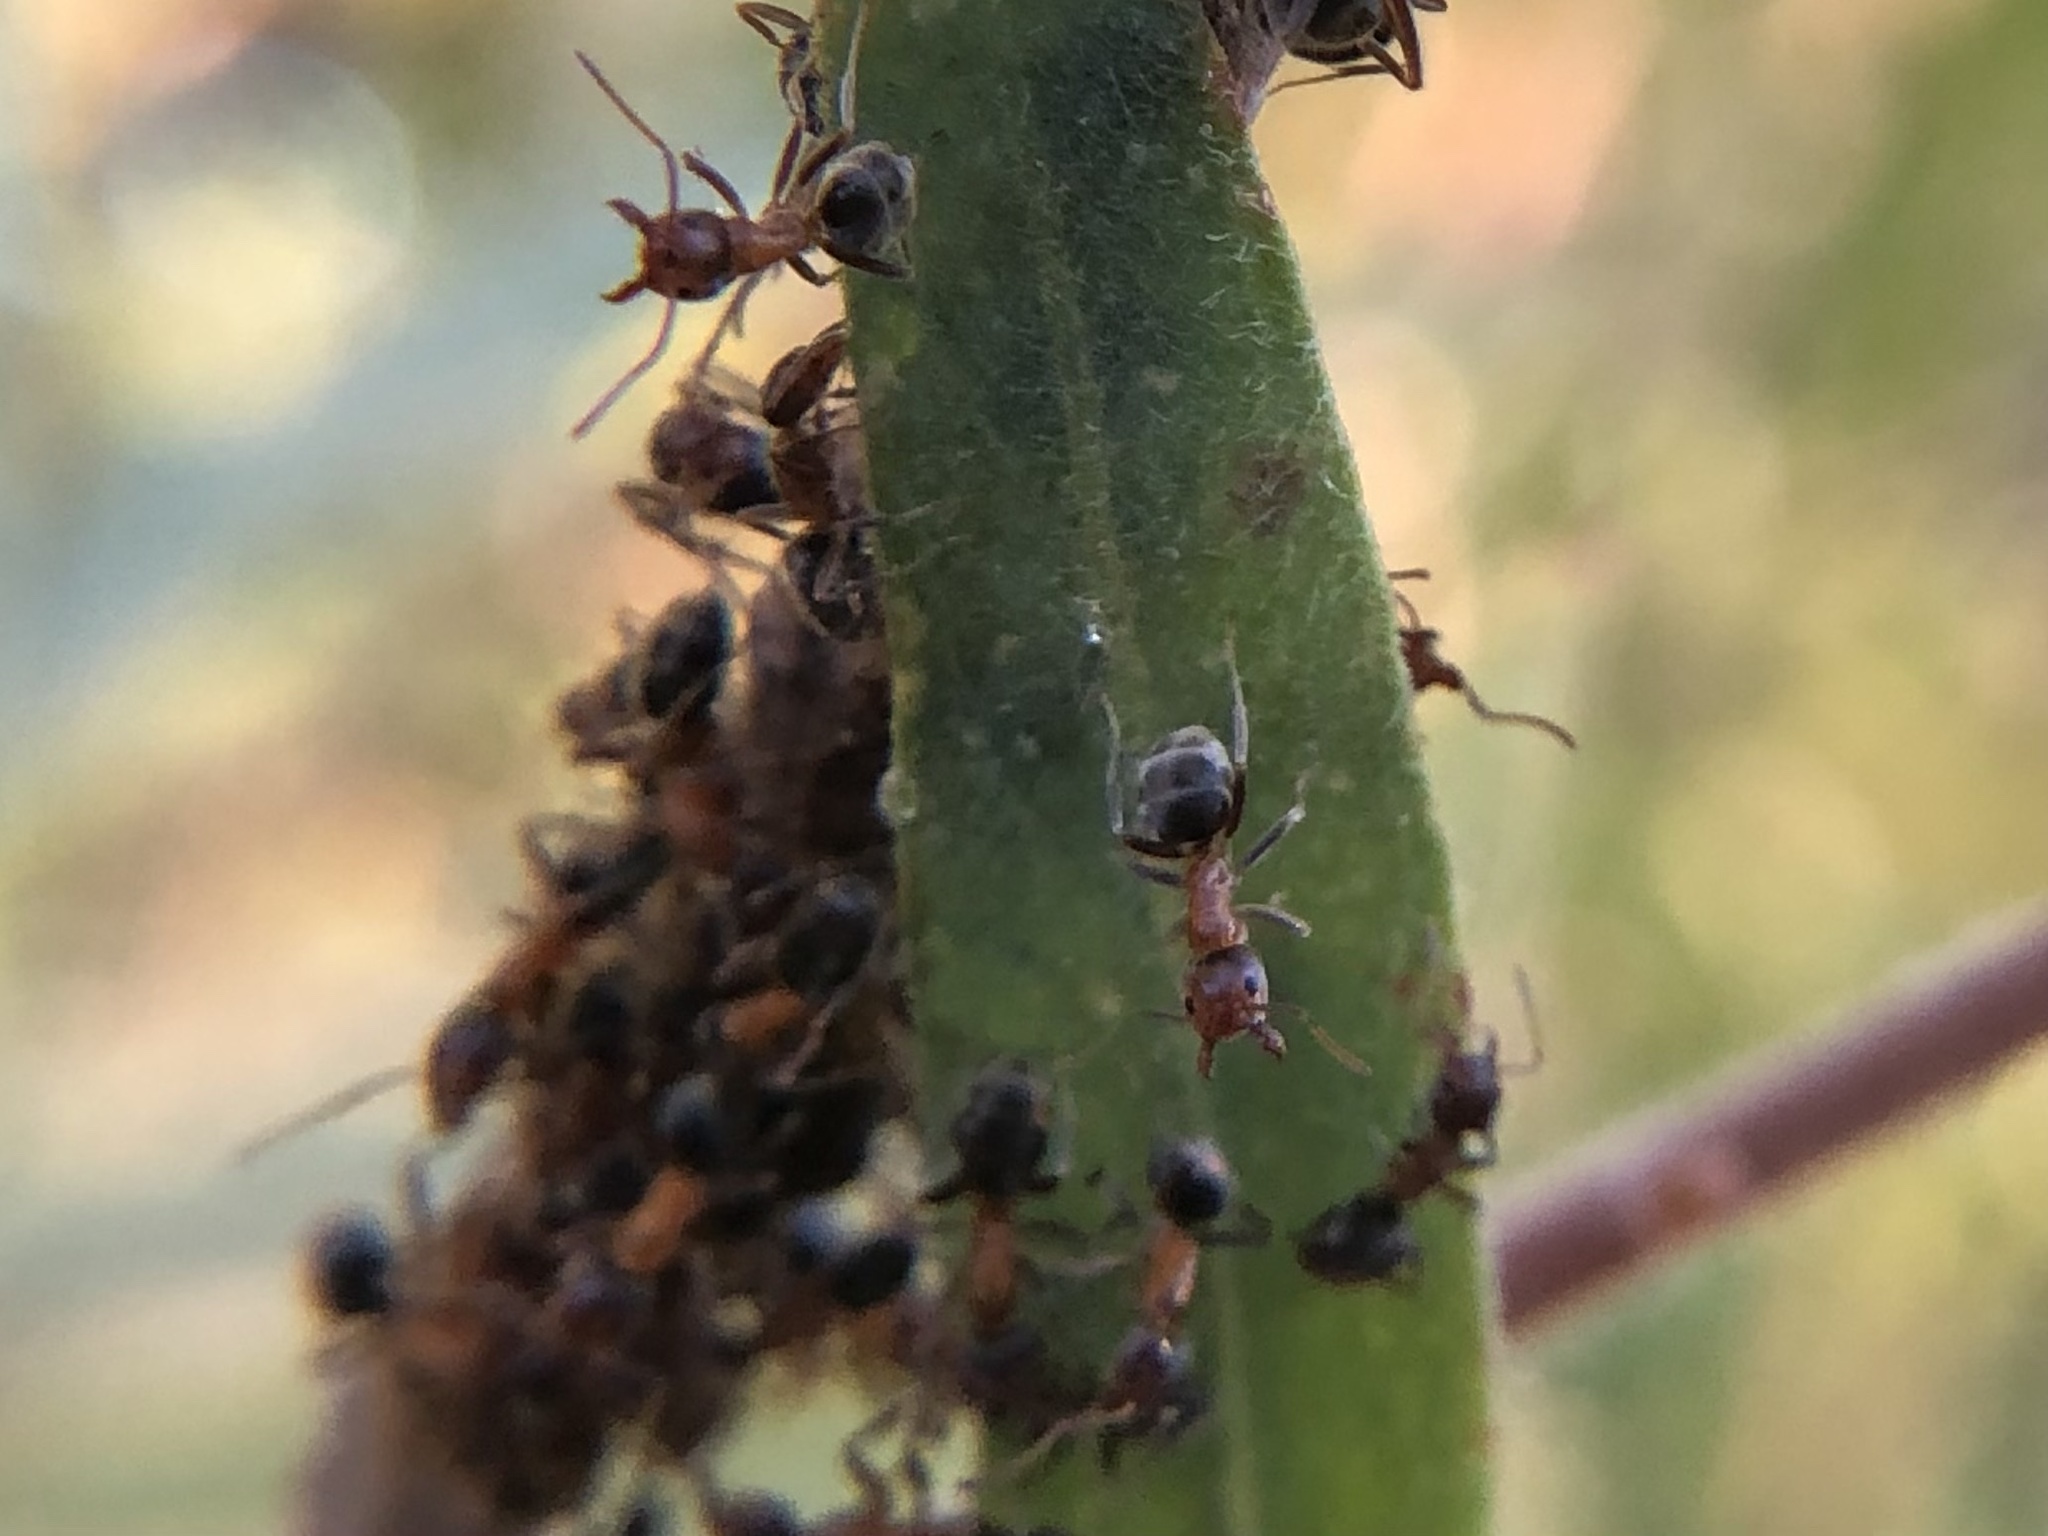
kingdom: Animalia
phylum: Arthropoda
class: Insecta
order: Hymenoptera
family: Formicidae
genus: Liometopum
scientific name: Liometopum occidentale
